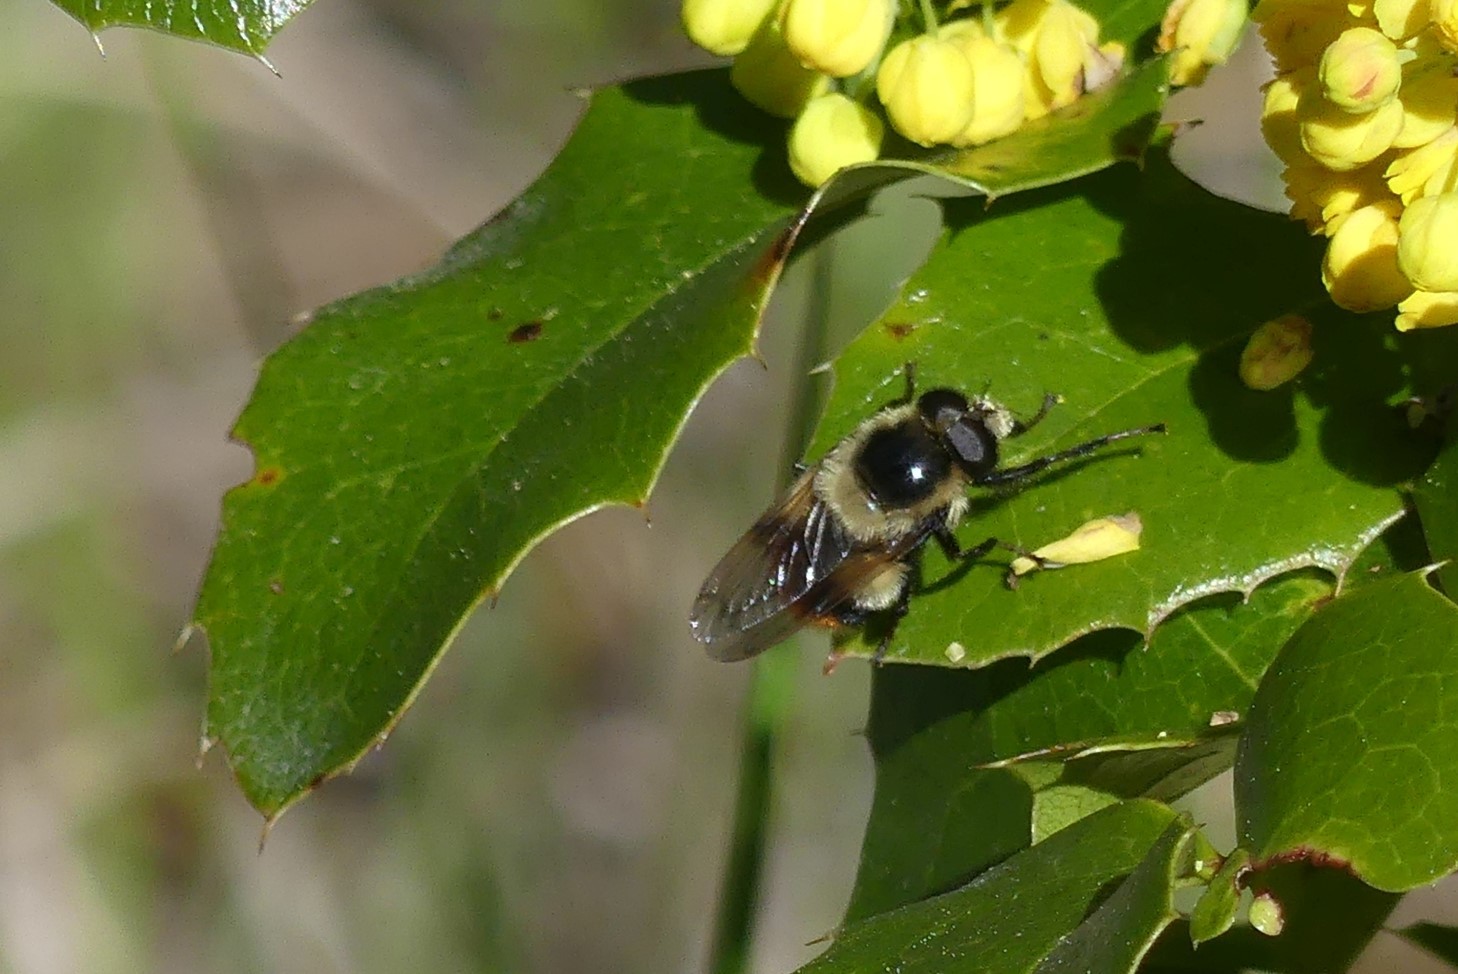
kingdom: Animalia
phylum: Arthropoda
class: Insecta
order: Diptera
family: Syrphidae
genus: Volucella
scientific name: Volucella facialis
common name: Yellow-faced swiftwing
